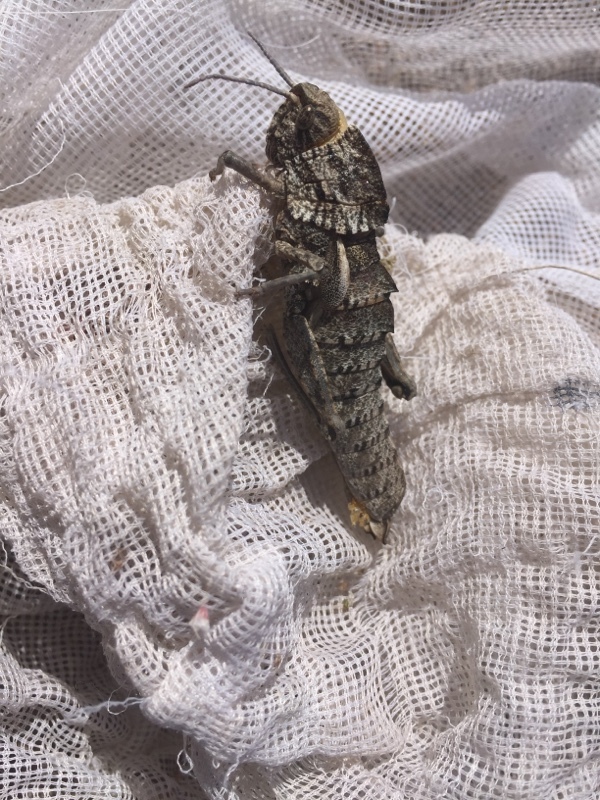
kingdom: Animalia
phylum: Arthropoda
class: Insecta
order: Orthoptera
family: Pamphagidae
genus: Eumigus
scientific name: Eumigus ayresi
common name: Ayres' stone grasshopper
